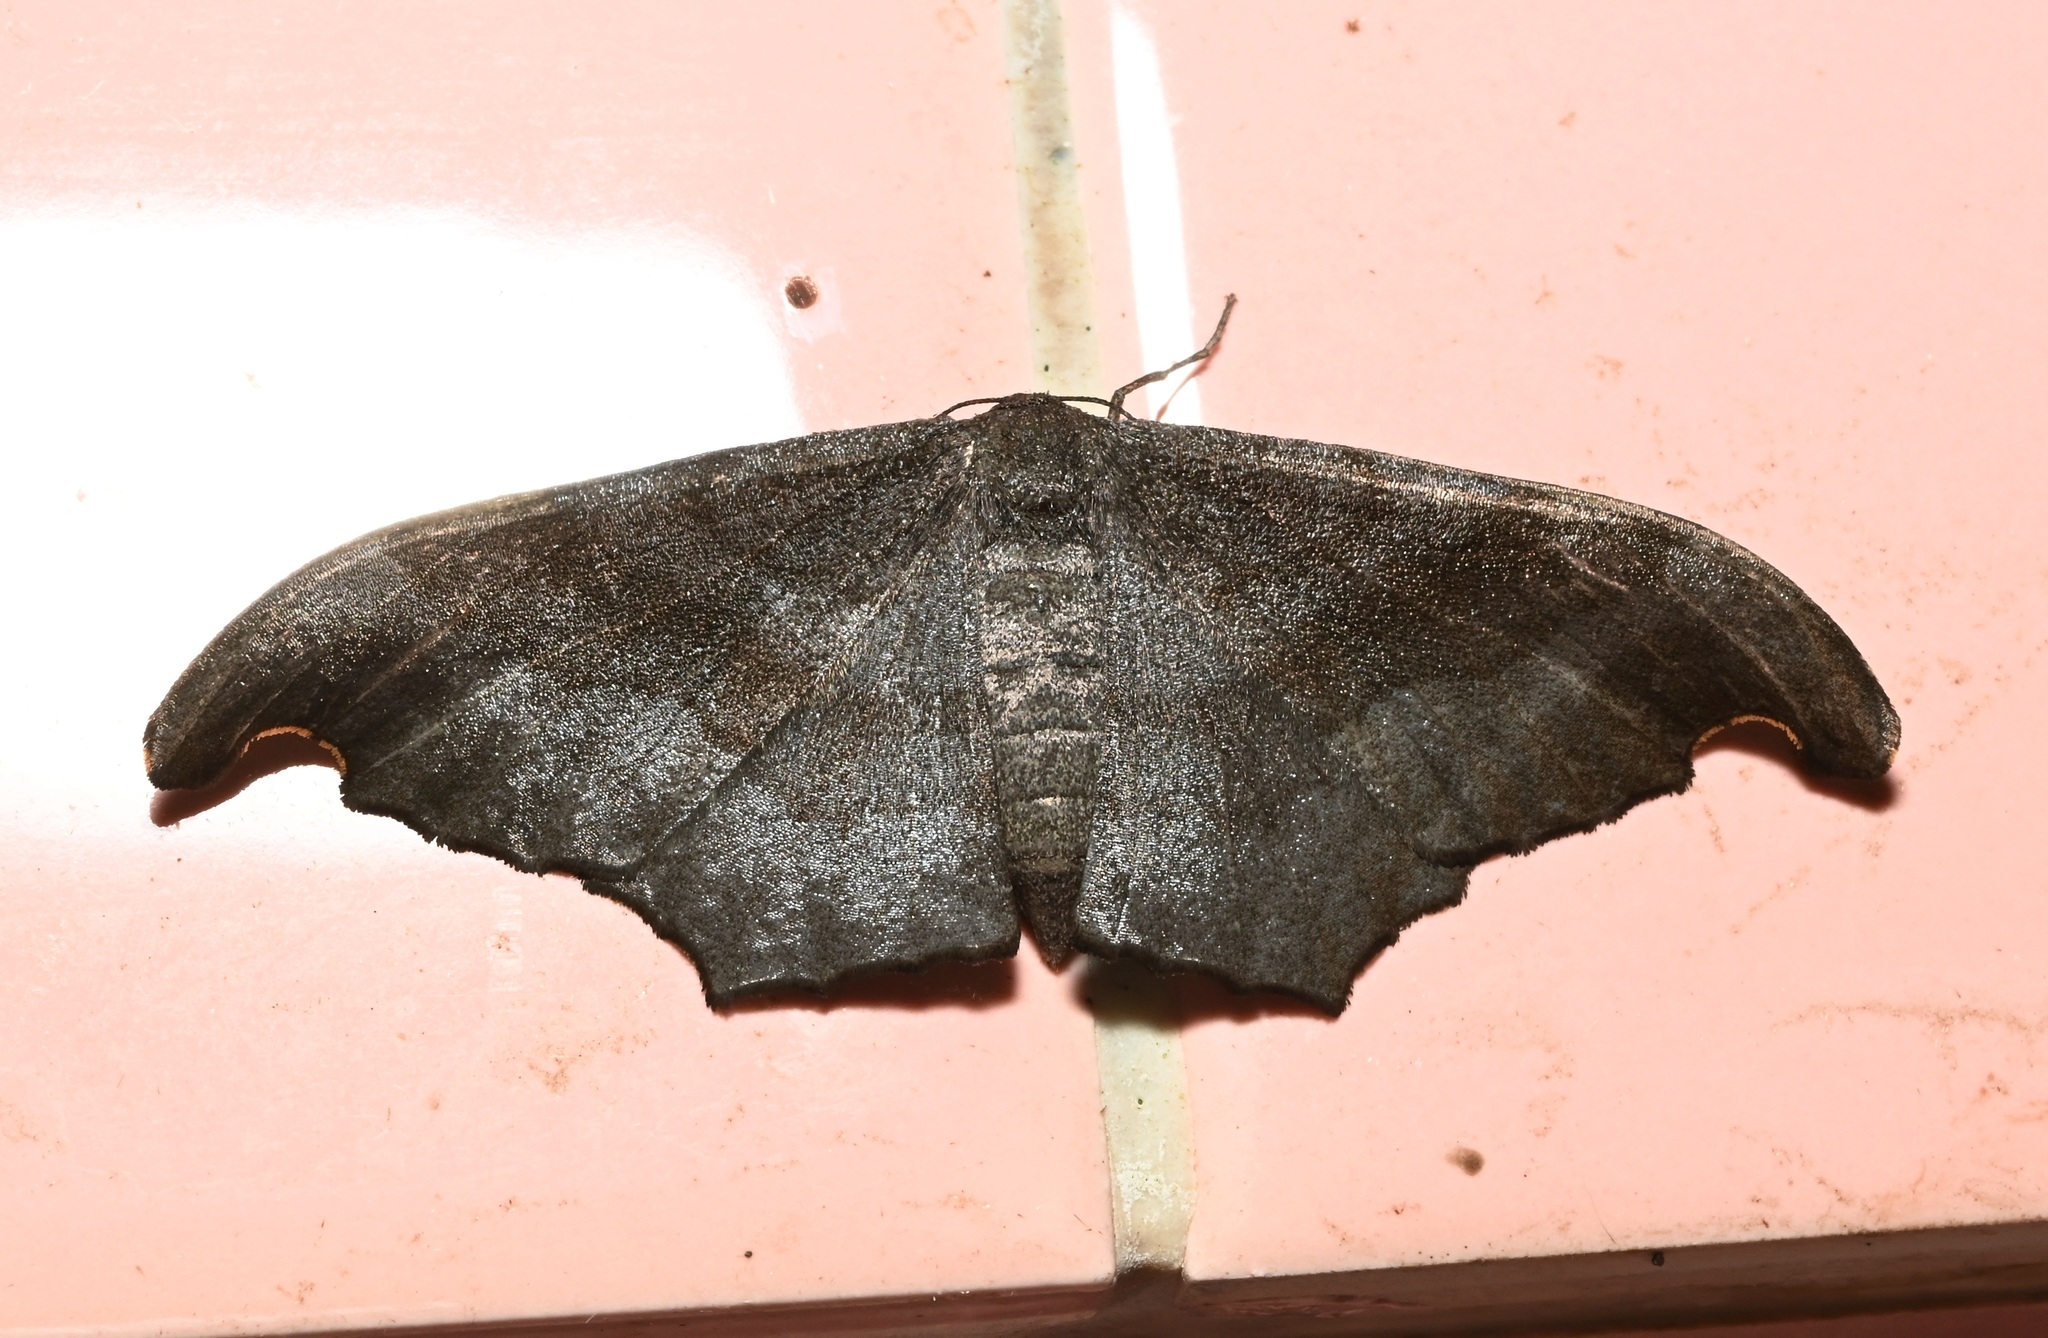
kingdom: Animalia
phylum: Arthropoda
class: Insecta
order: Lepidoptera
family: Geometridae
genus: Hyposidra
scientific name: Hyposidra talaca
